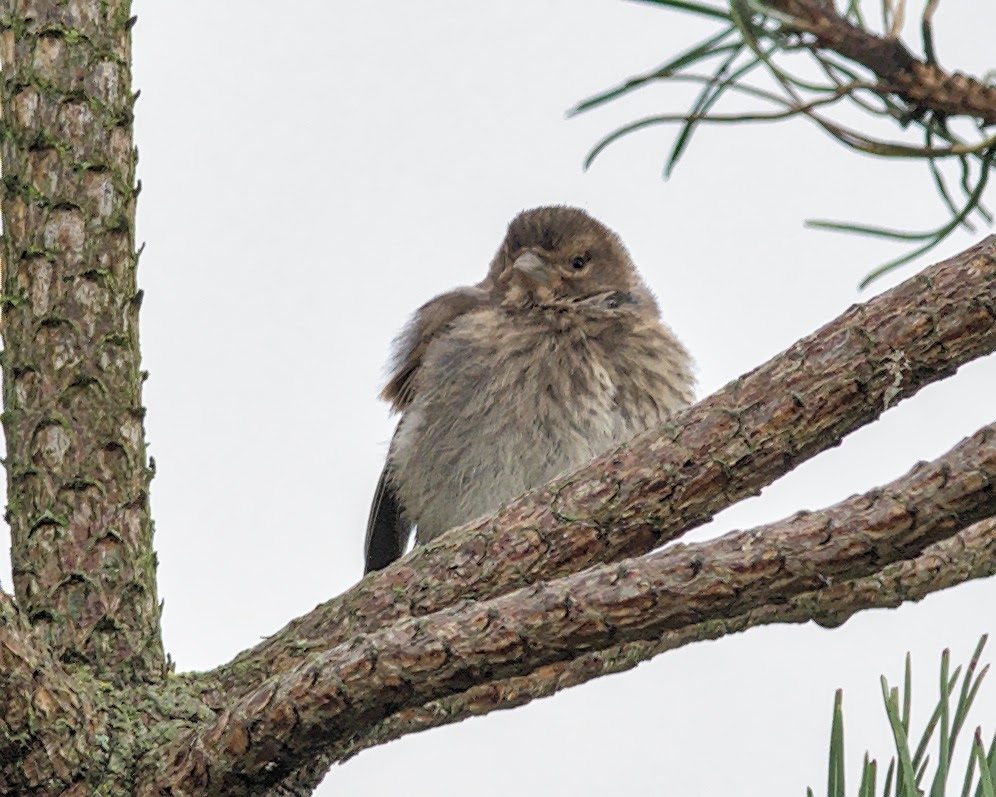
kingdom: Animalia
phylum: Chordata
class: Aves
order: Passeriformes
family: Fringillidae
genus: Linaria
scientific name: Linaria cannabina
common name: Common linnet
